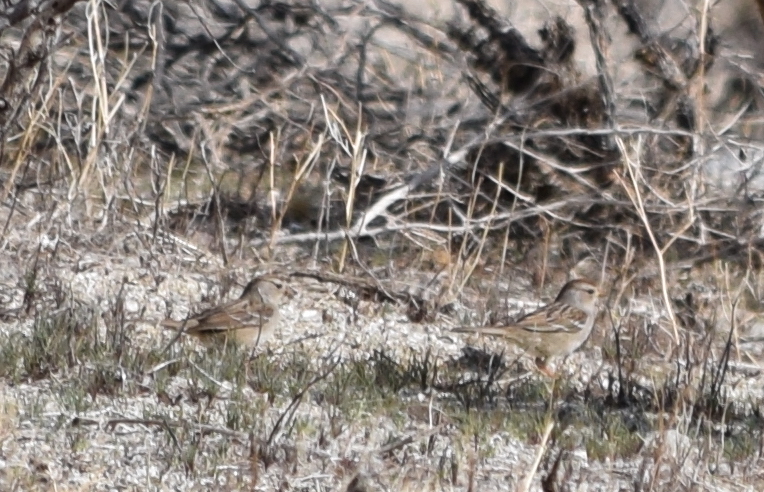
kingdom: Animalia
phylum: Chordata
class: Aves
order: Passeriformes
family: Passerellidae
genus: Zonotrichia
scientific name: Zonotrichia leucophrys
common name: White-crowned sparrow
